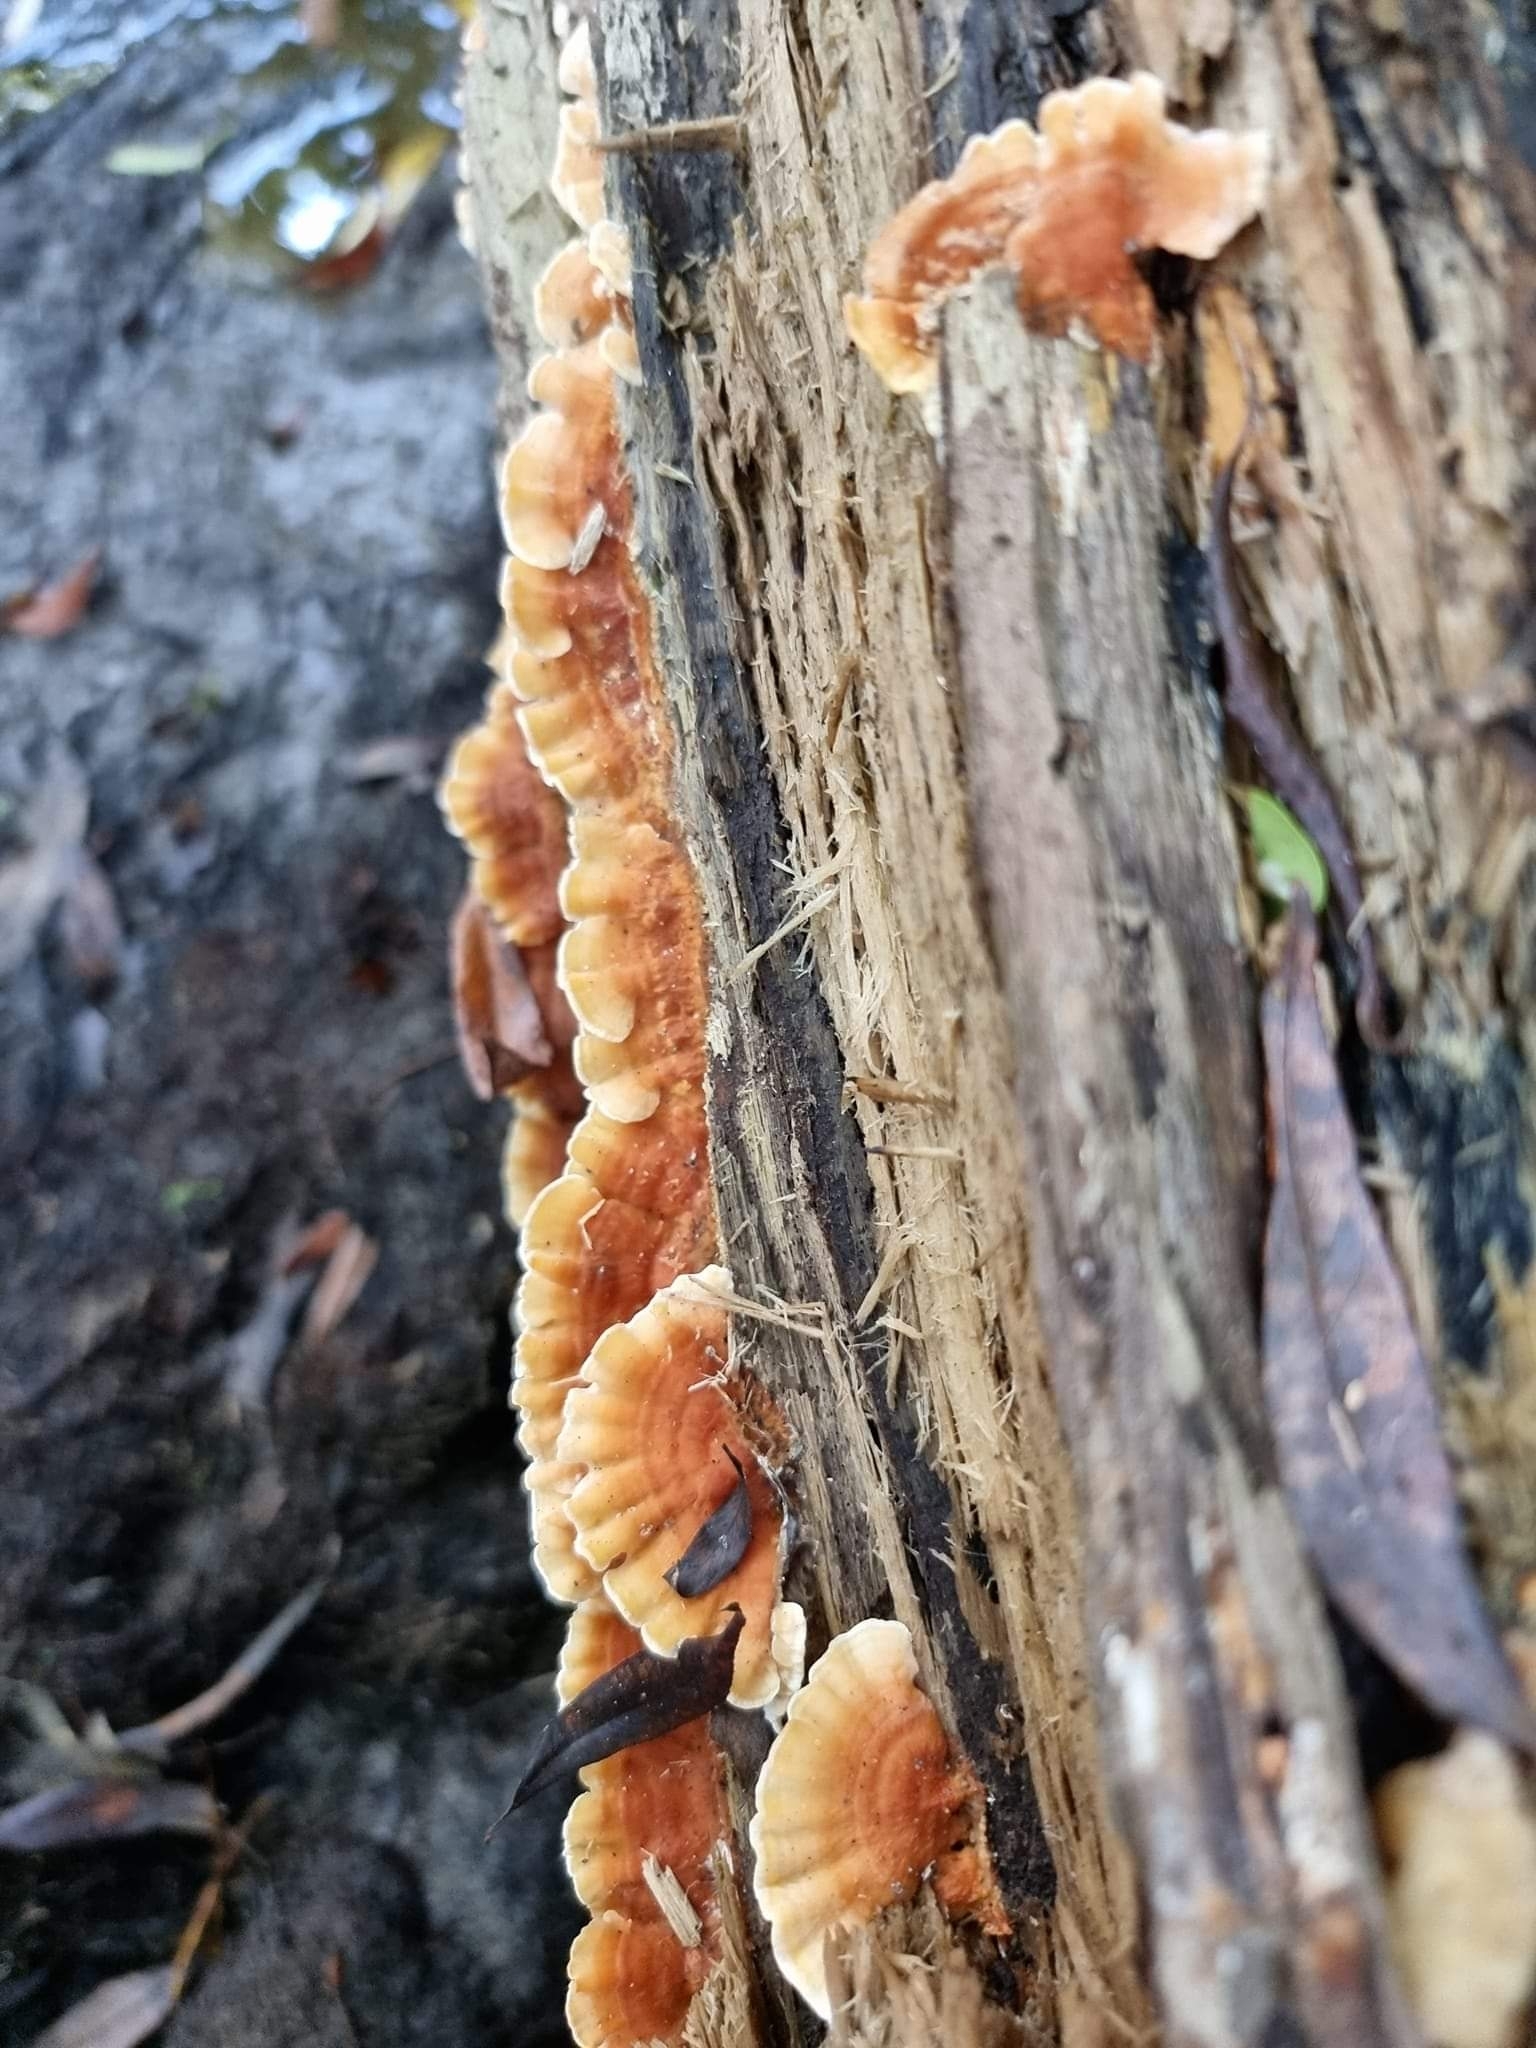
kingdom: Fungi
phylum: Basidiomycota
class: Agaricomycetes
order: Polyporales
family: Cerrenaceae
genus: Cerrena
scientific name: Cerrena zonata
